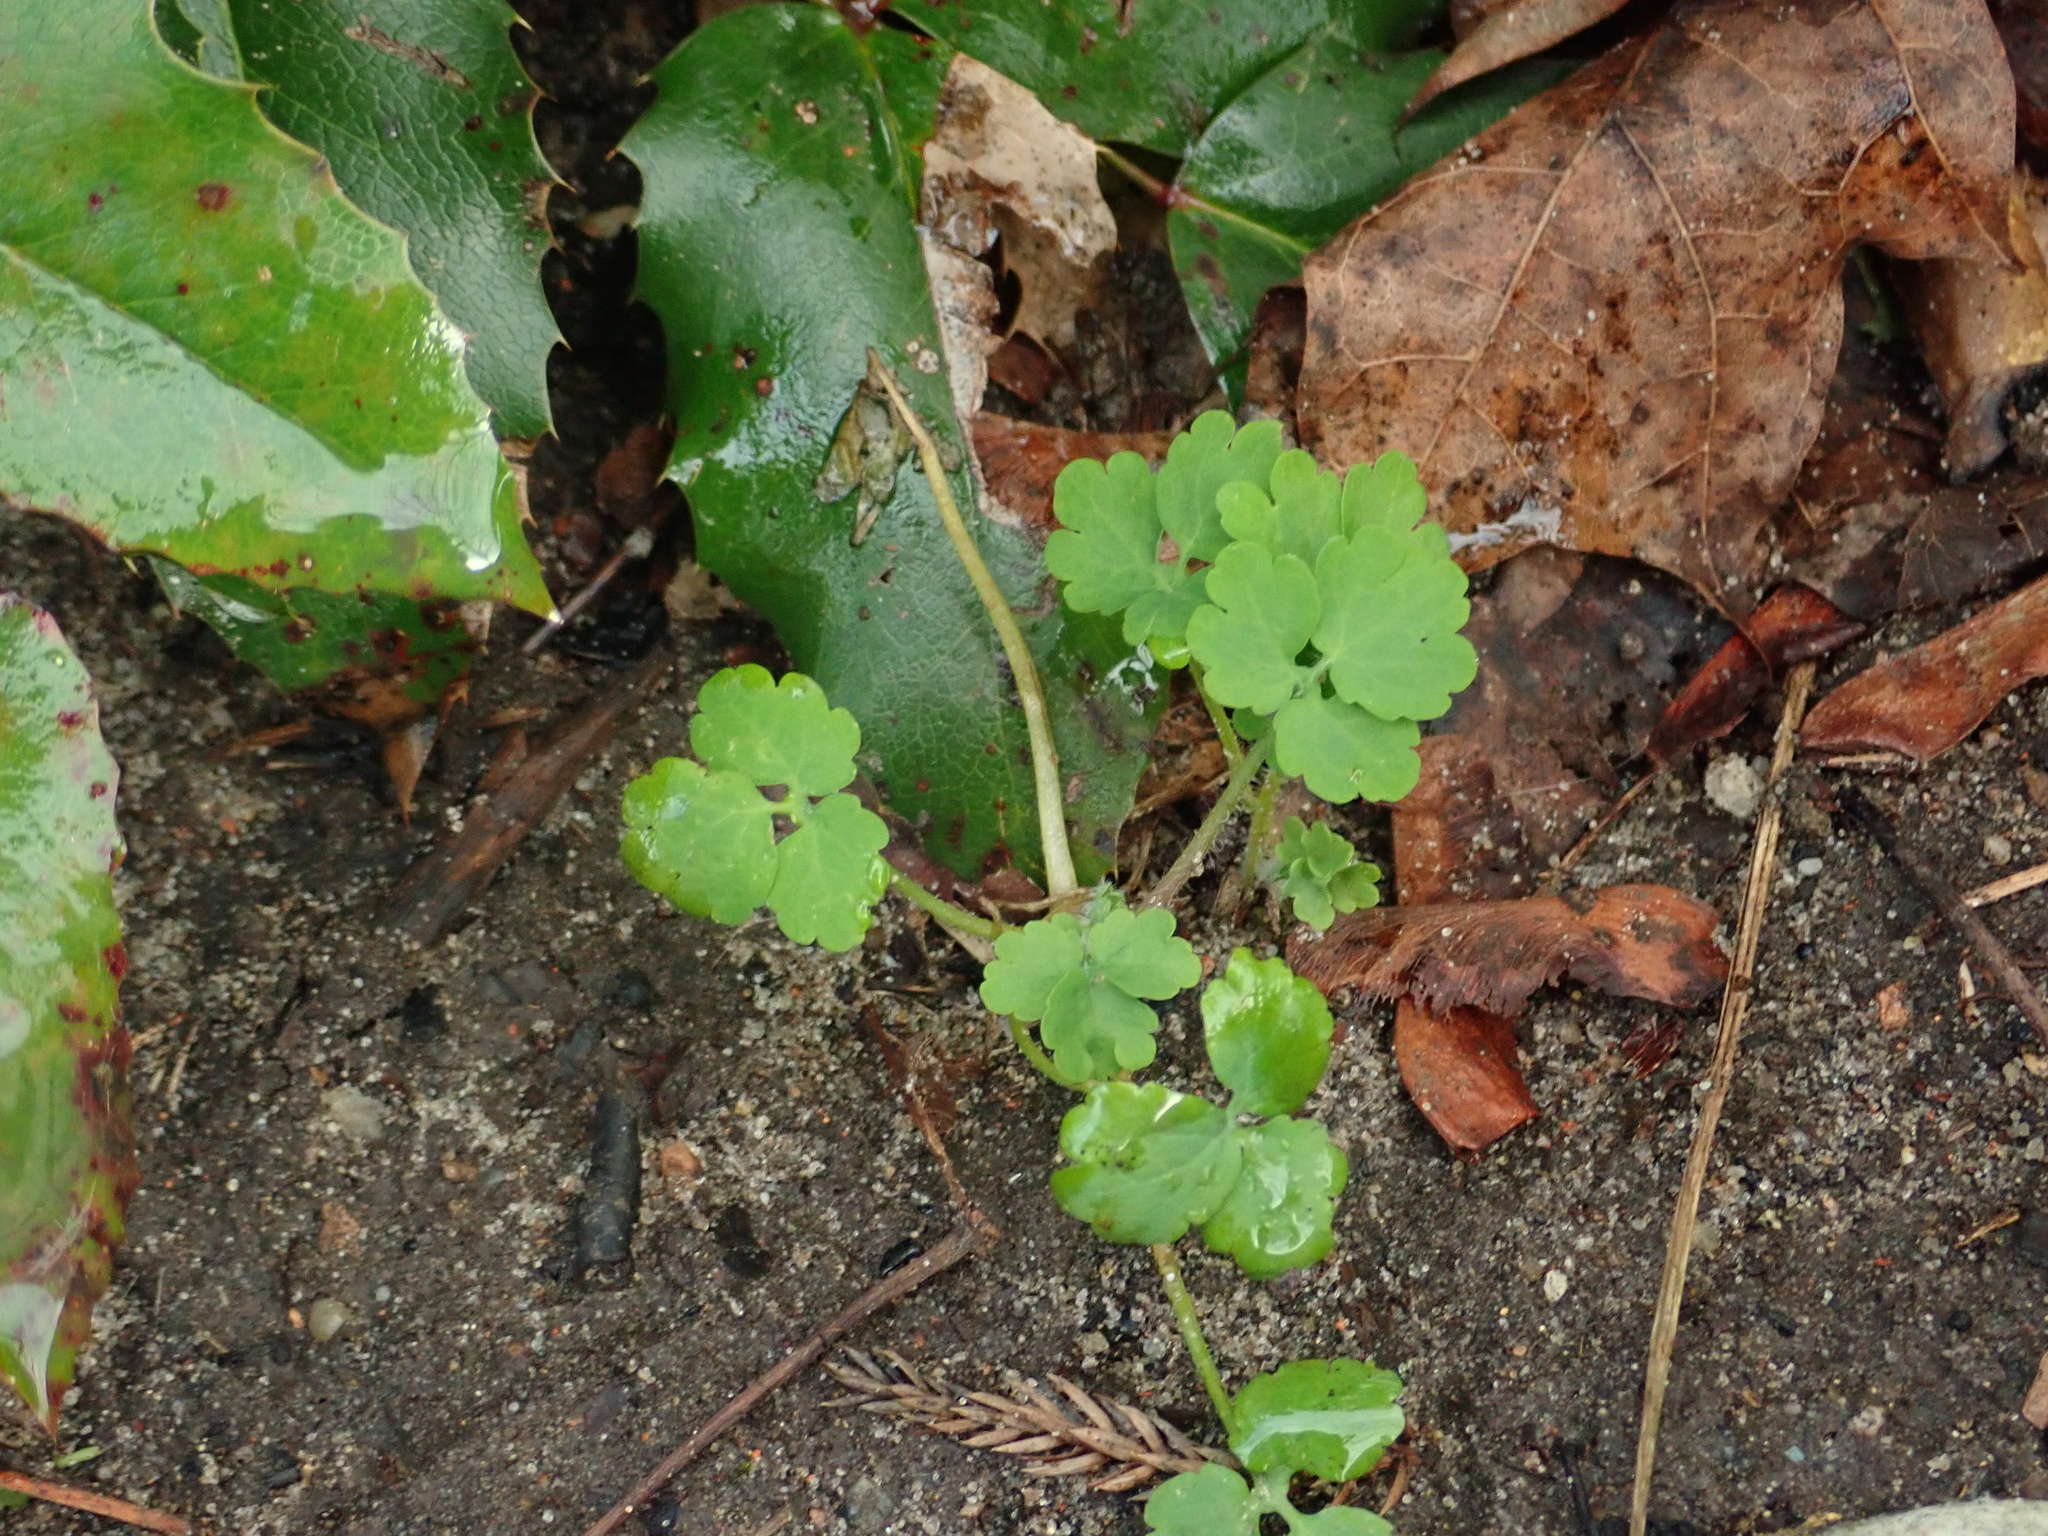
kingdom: Plantae
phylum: Tracheophyta
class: Magnoliopsida
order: Ranunculales
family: Papaveraceae
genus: Chelidonium
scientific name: Chelidonium majus
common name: Greater celandine
